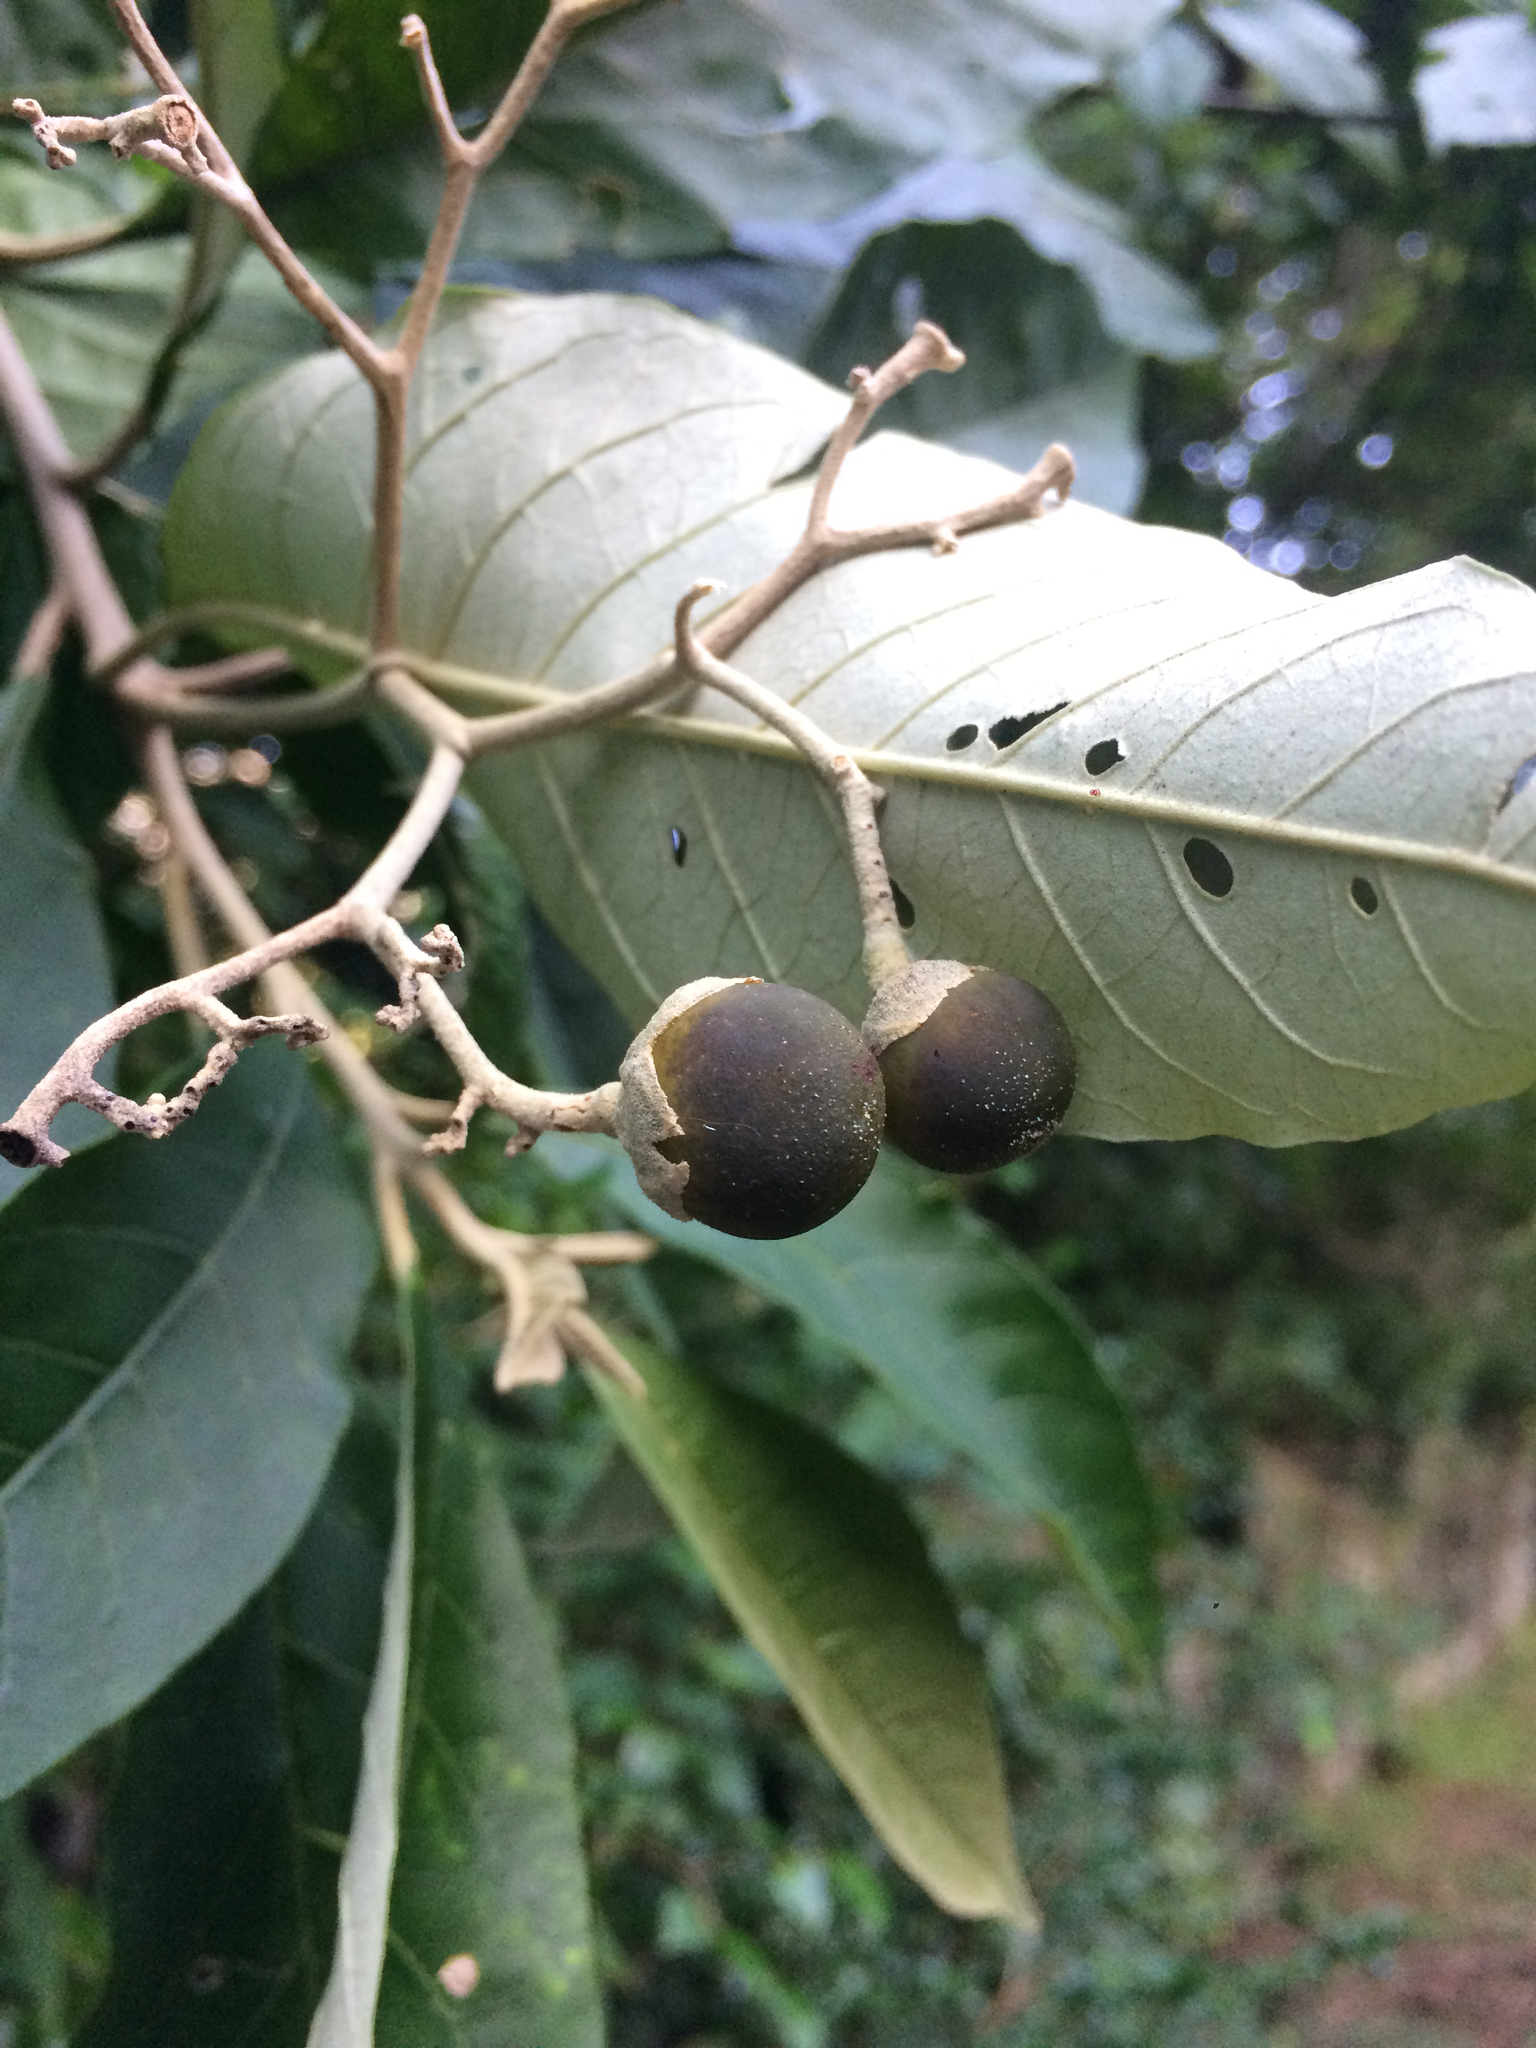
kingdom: Plantae
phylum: Tracheophyta
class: Magnoliopsida
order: Solanales
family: Solanaceae
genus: Solanum
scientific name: Solanum leucodendron
